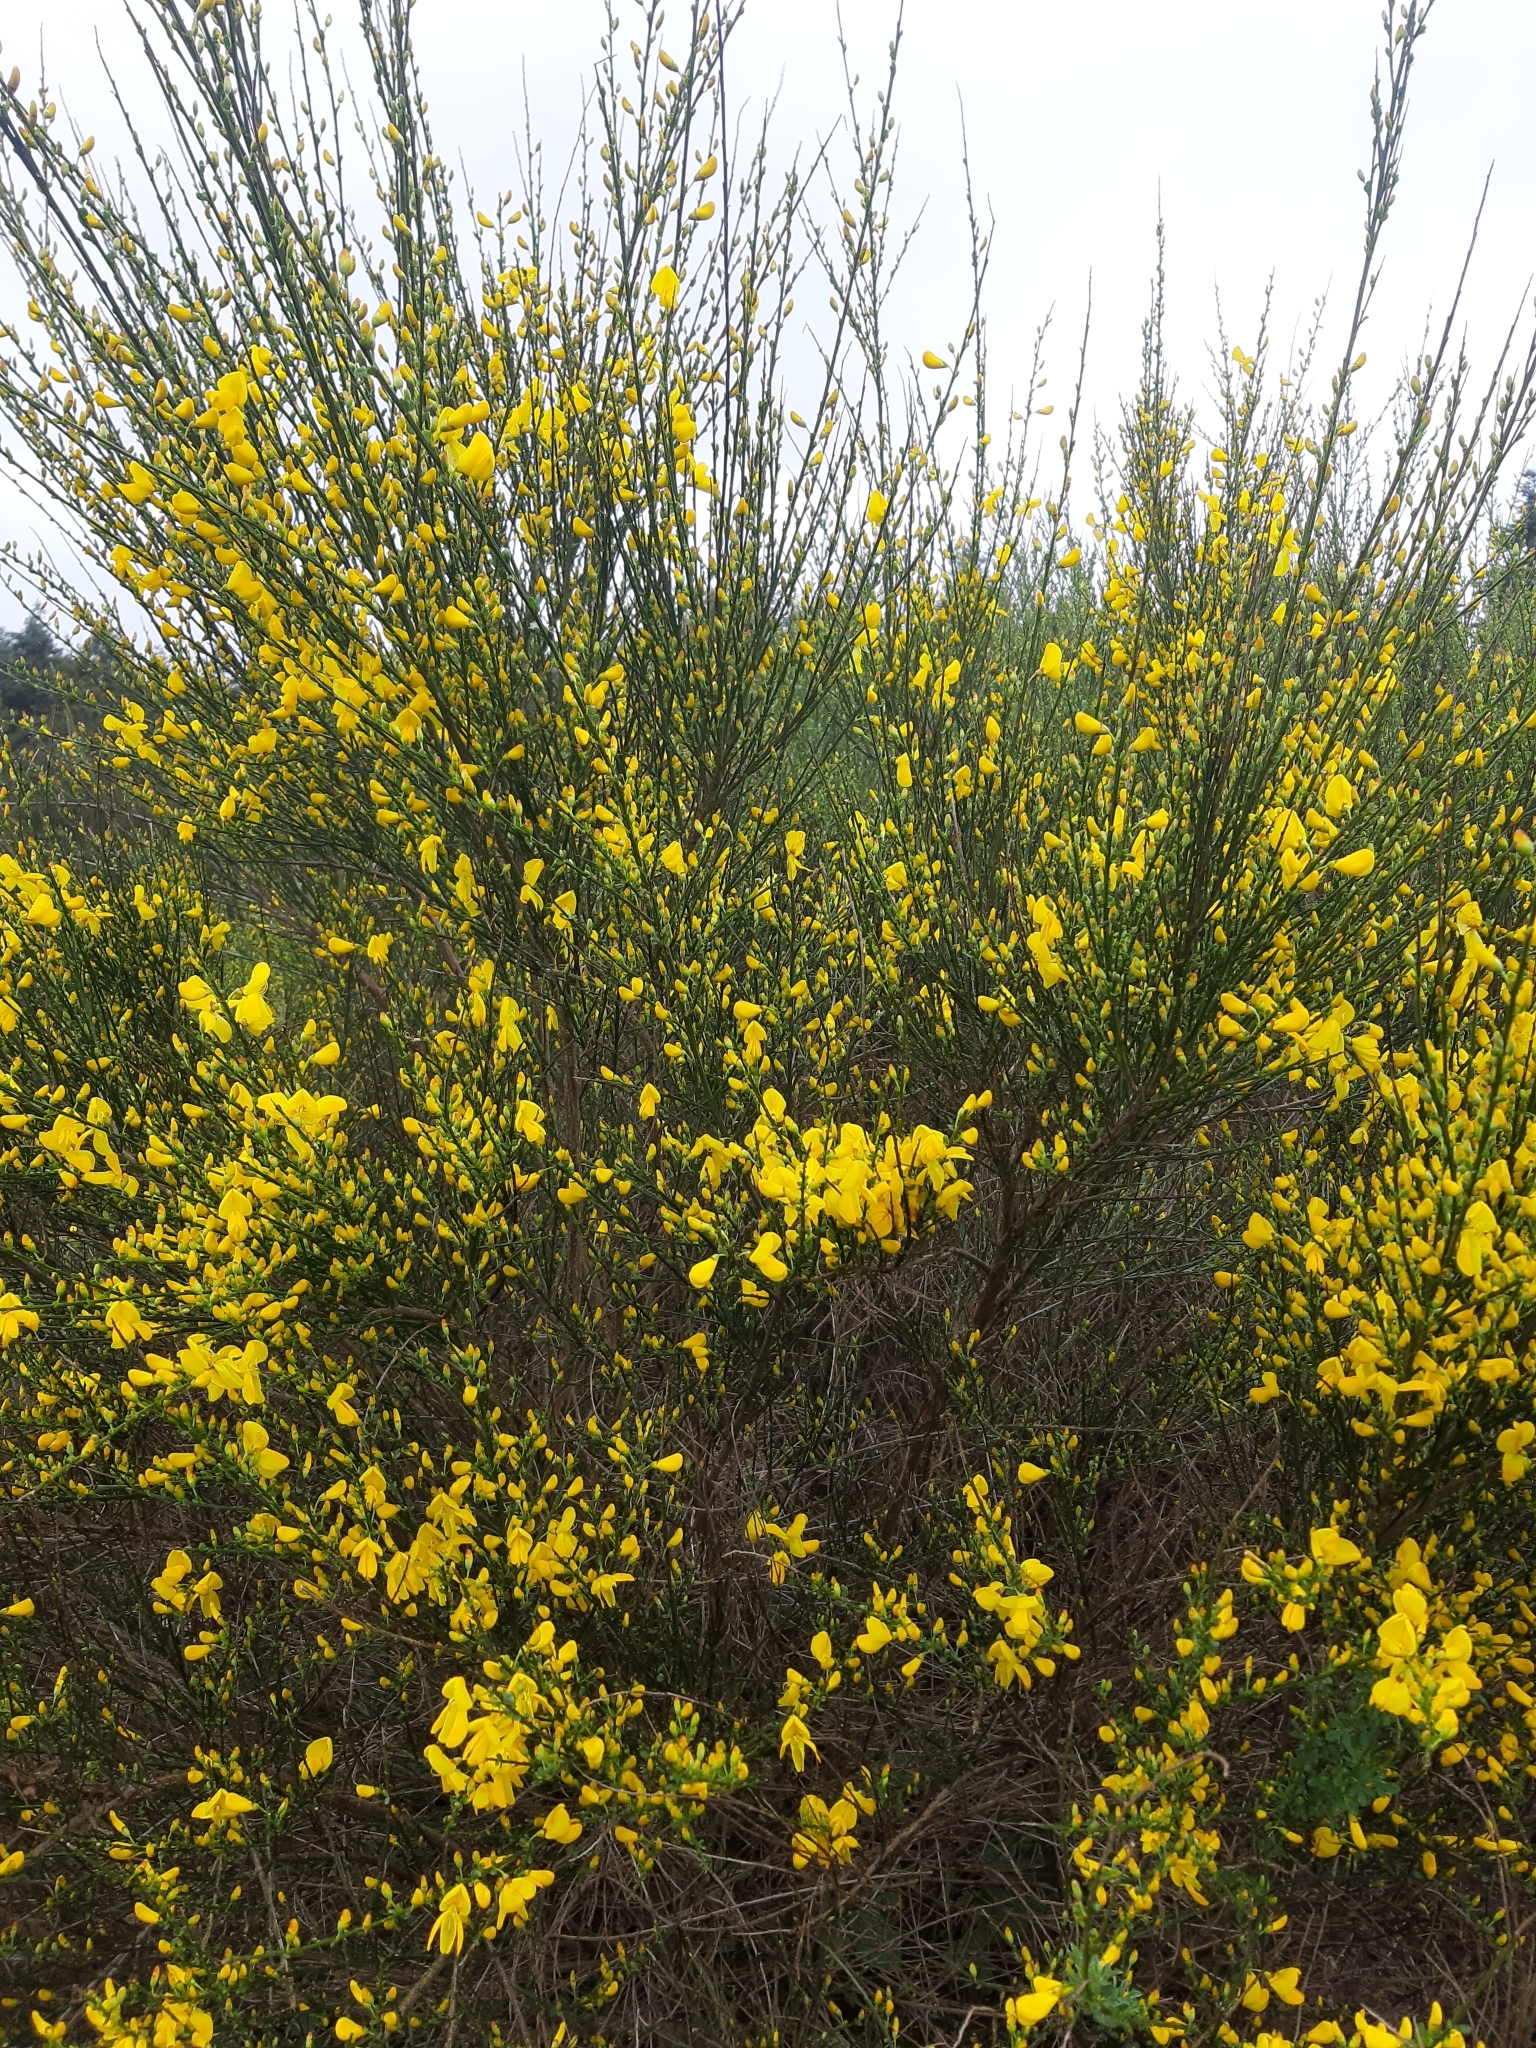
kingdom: Plantae
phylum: Tracheophyta
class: Magnoliopsida
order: Fabales
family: Fabaceae
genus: Cytisus
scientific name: Cytisus scoparius
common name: Scotch broom
